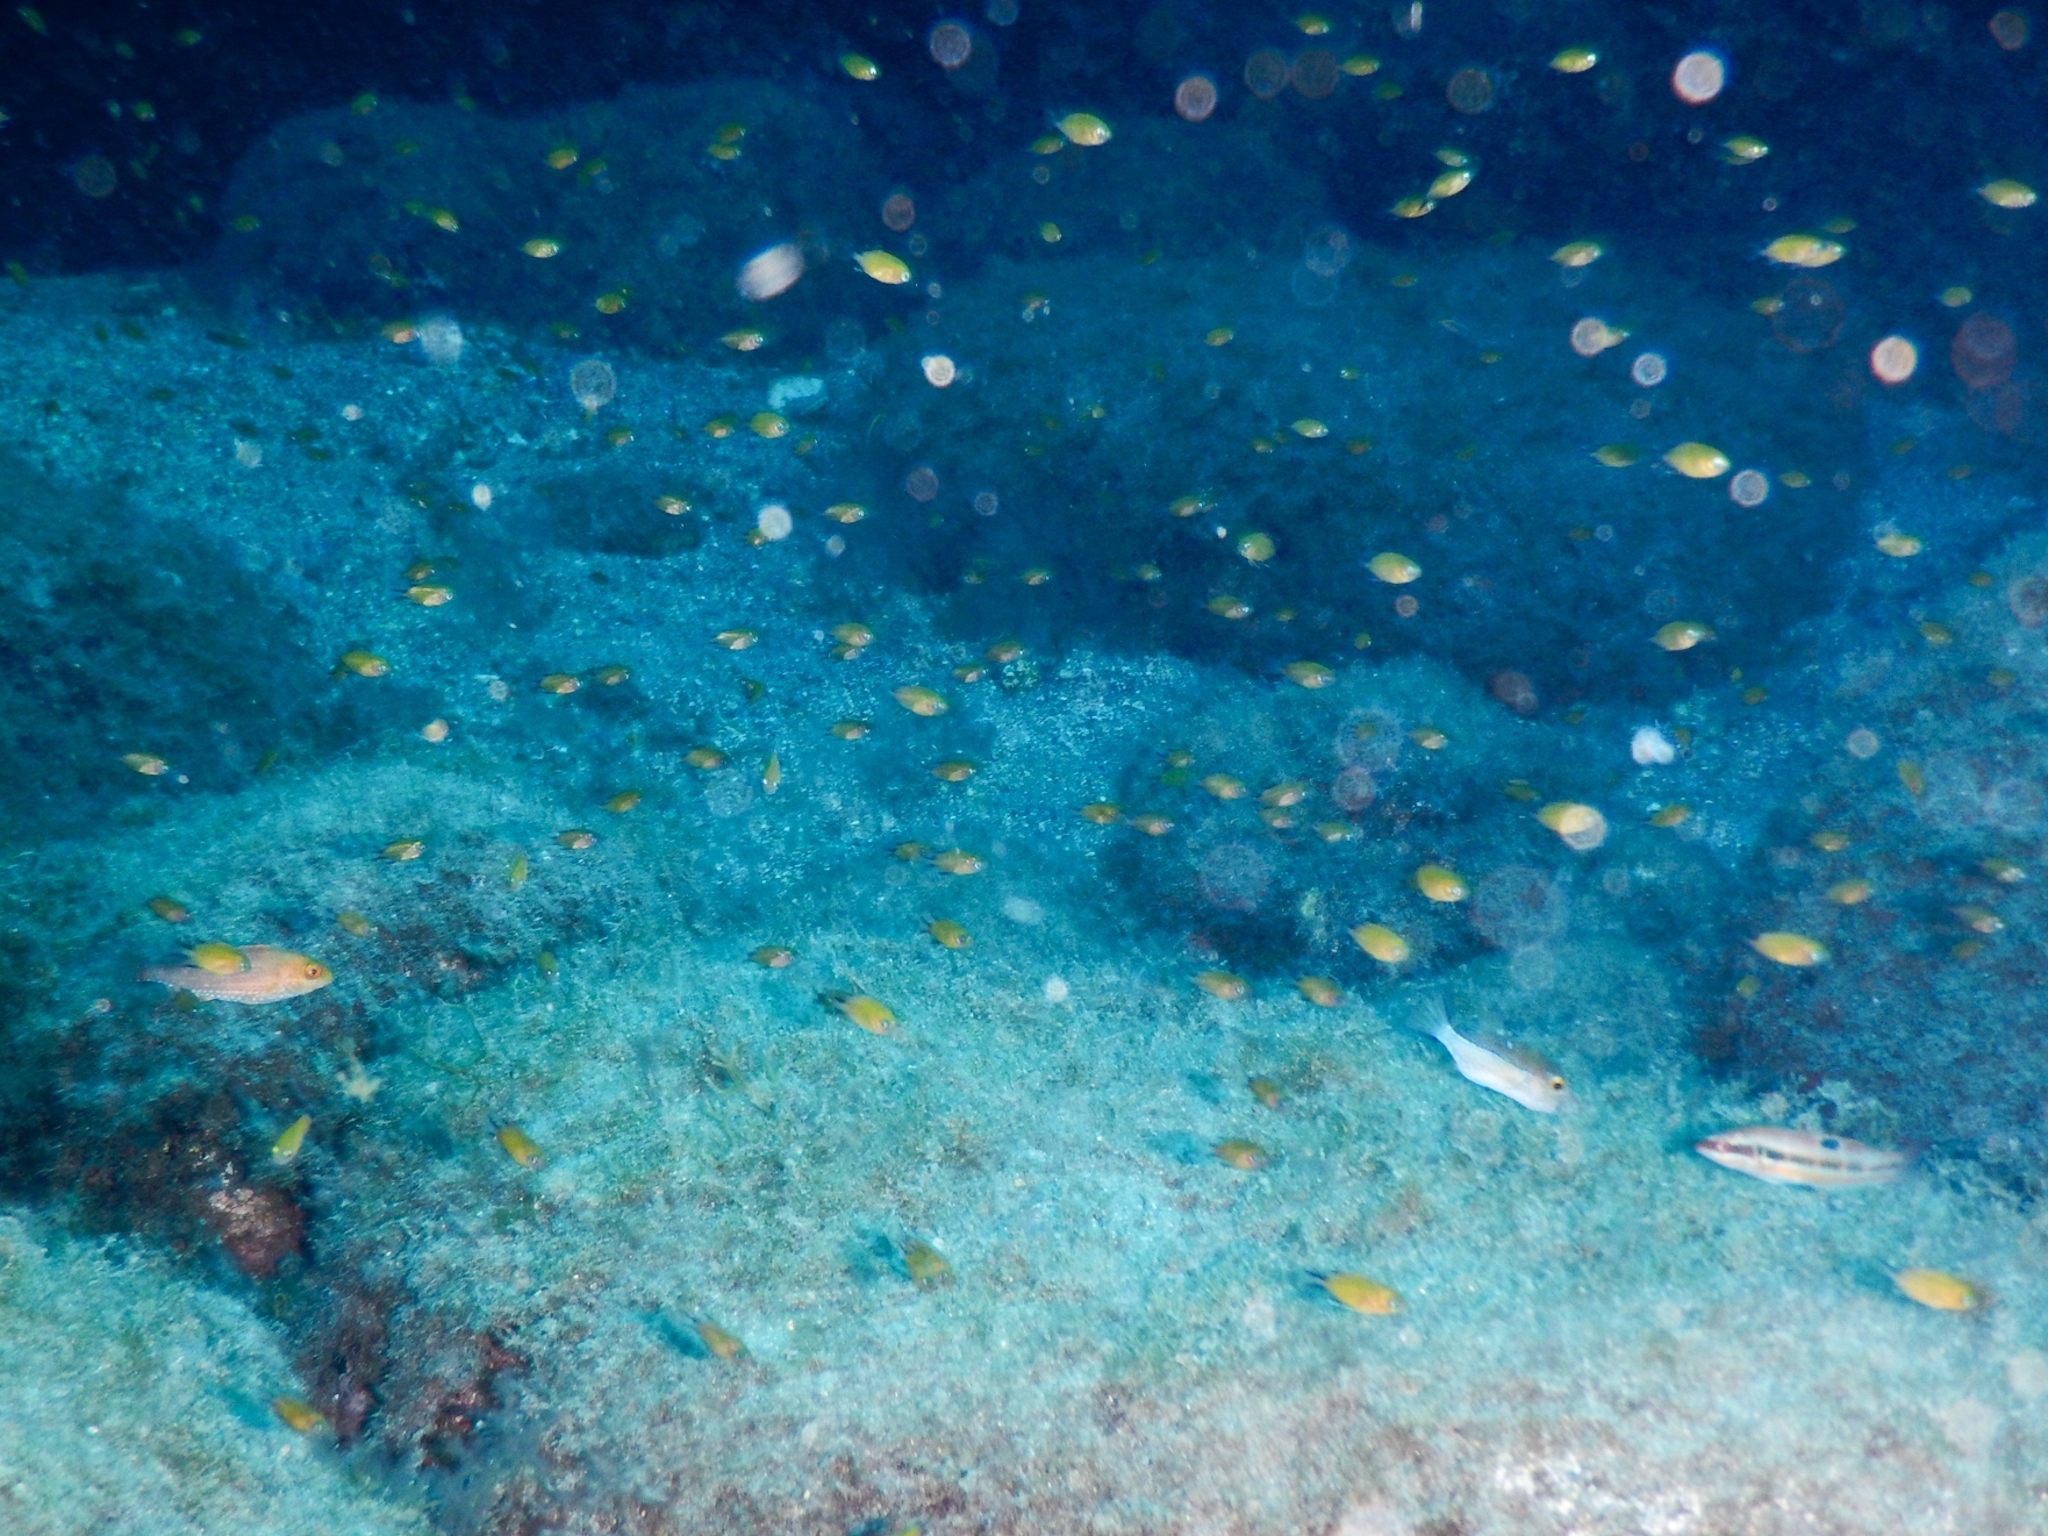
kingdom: Animalia
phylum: Chordata
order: Perciformes
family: Pomacentridae
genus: Chromis
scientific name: Chromis limbata
